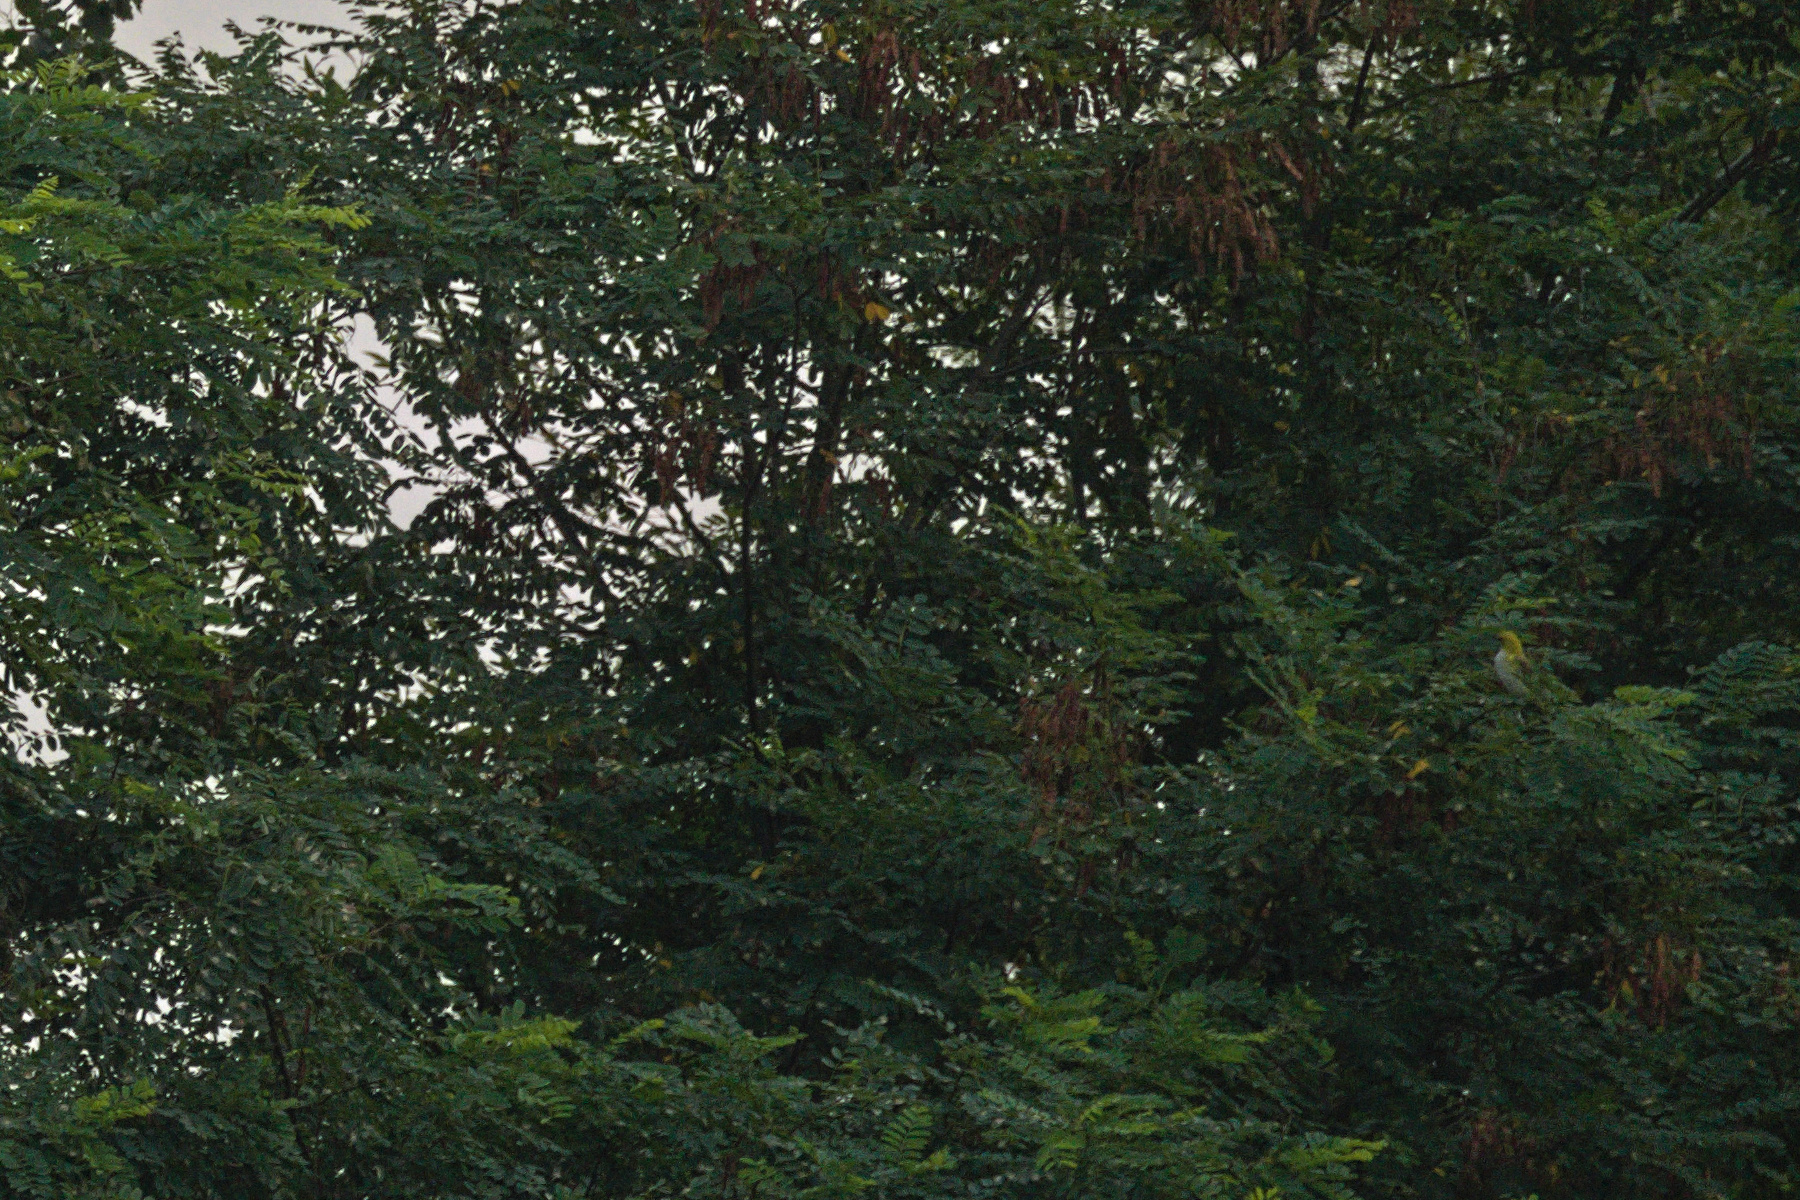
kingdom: Animalia
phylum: Chordata
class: Aves
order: Passeriformes
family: Oriolidae
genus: Oriolus
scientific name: Oriolus oriolus
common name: Eurasian golden oriole
